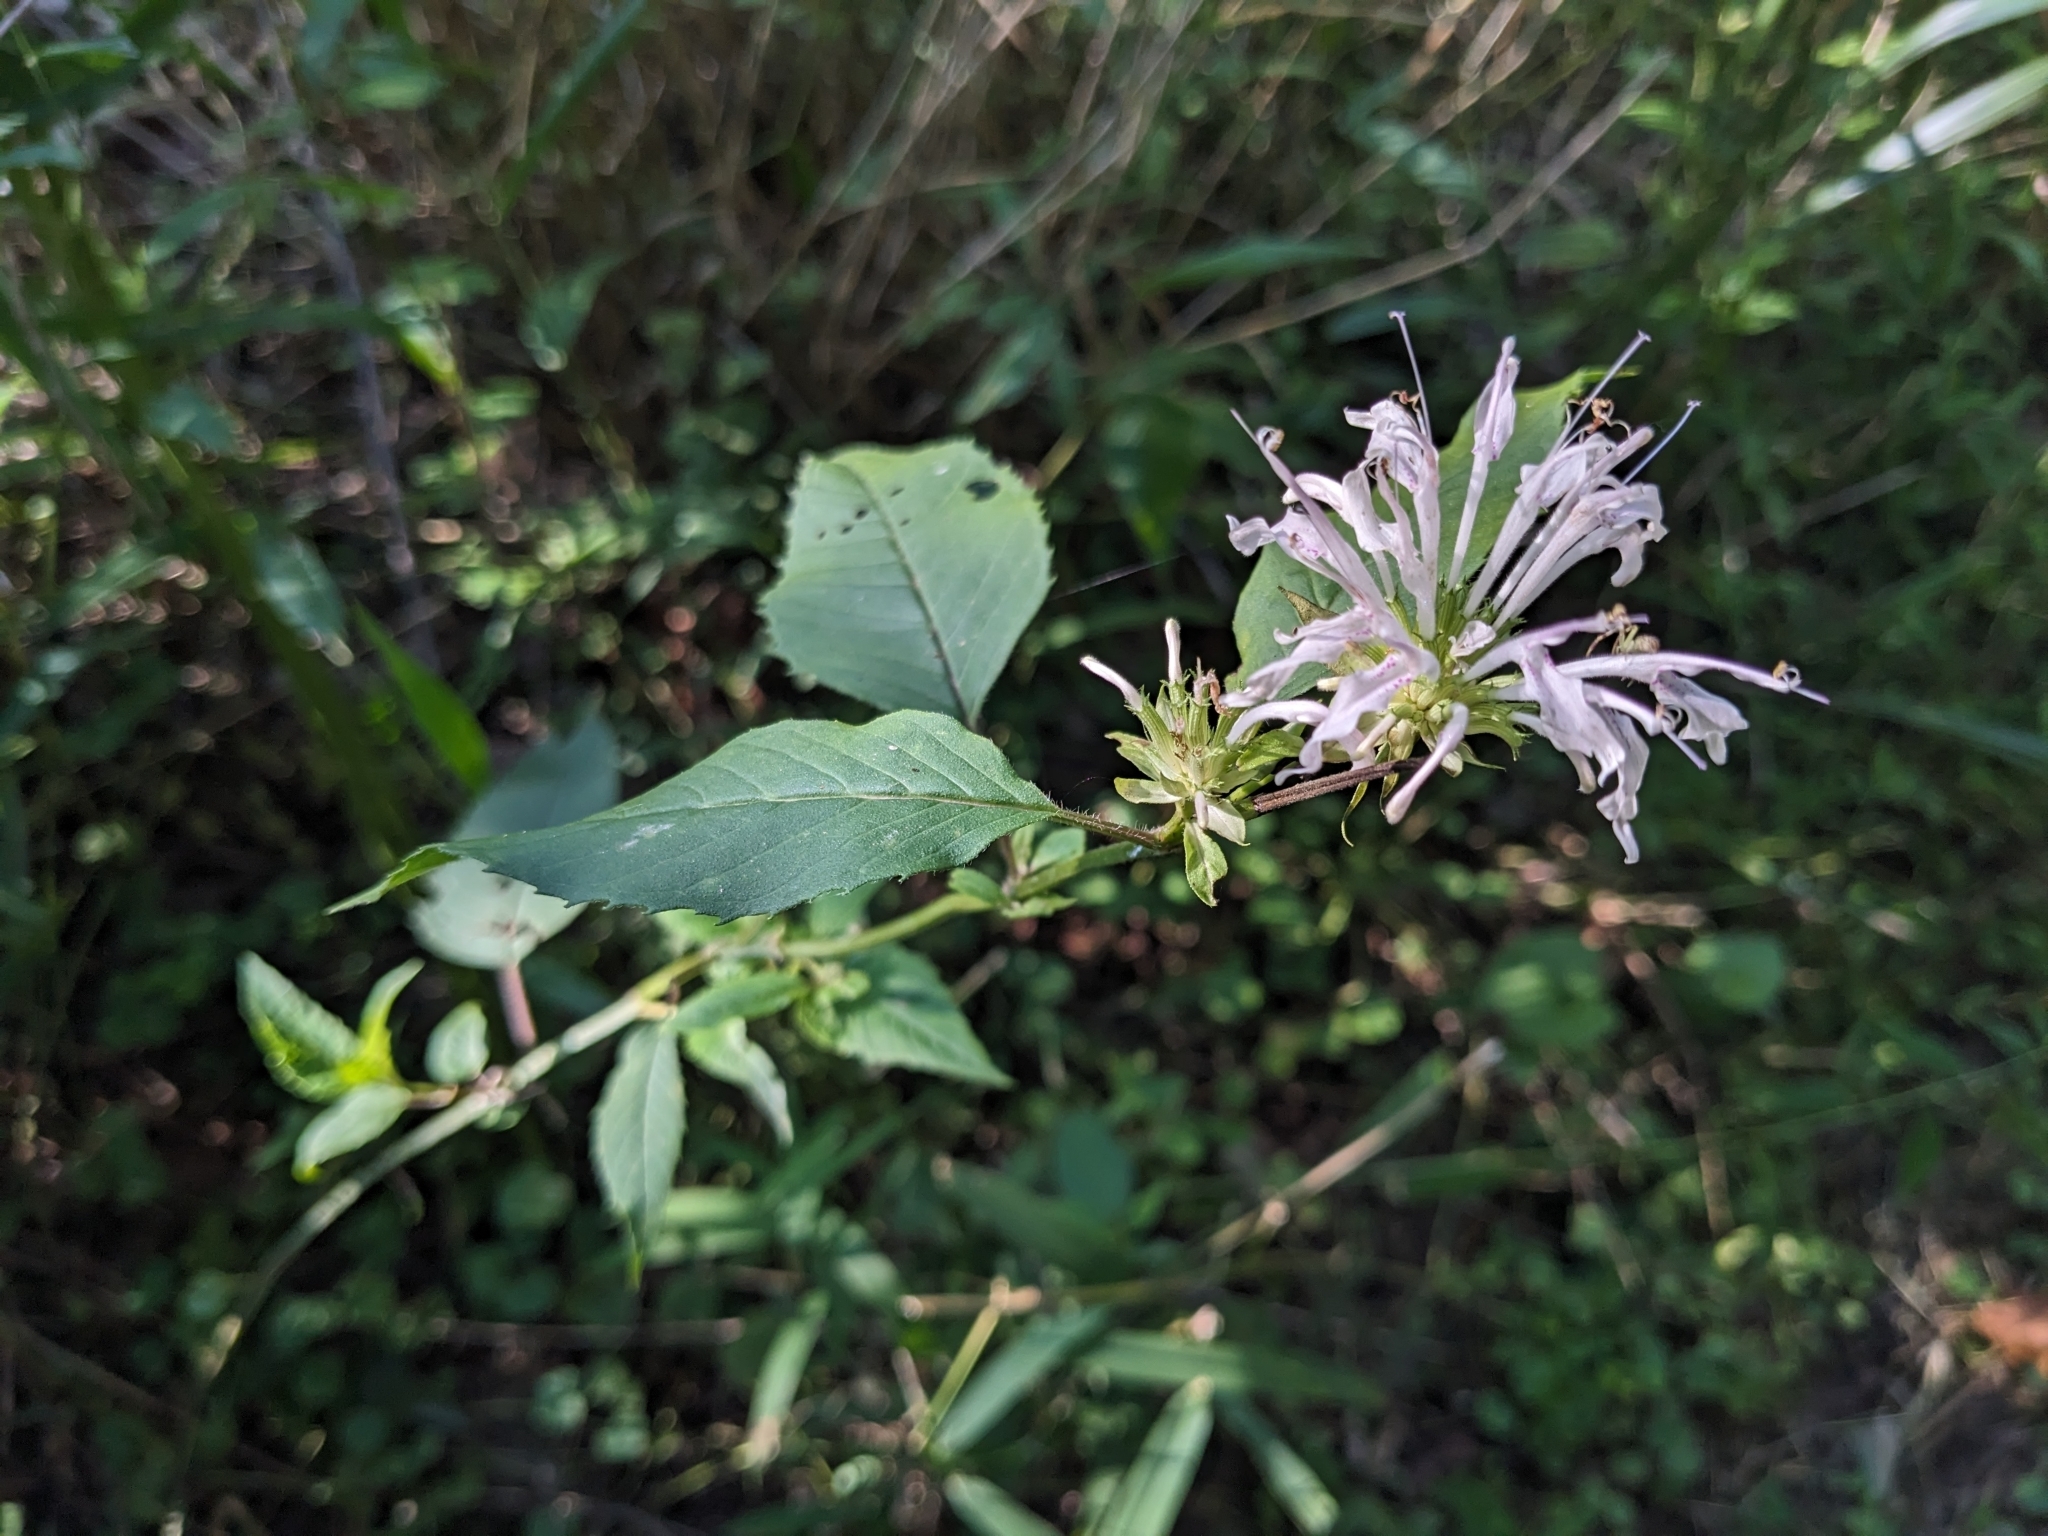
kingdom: Plantae
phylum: Tracheophyta
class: Magnoliopsida
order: Lamiales
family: Lamiaceae
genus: Monarda
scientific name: Monarda fistulosa
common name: Purple beebalm
